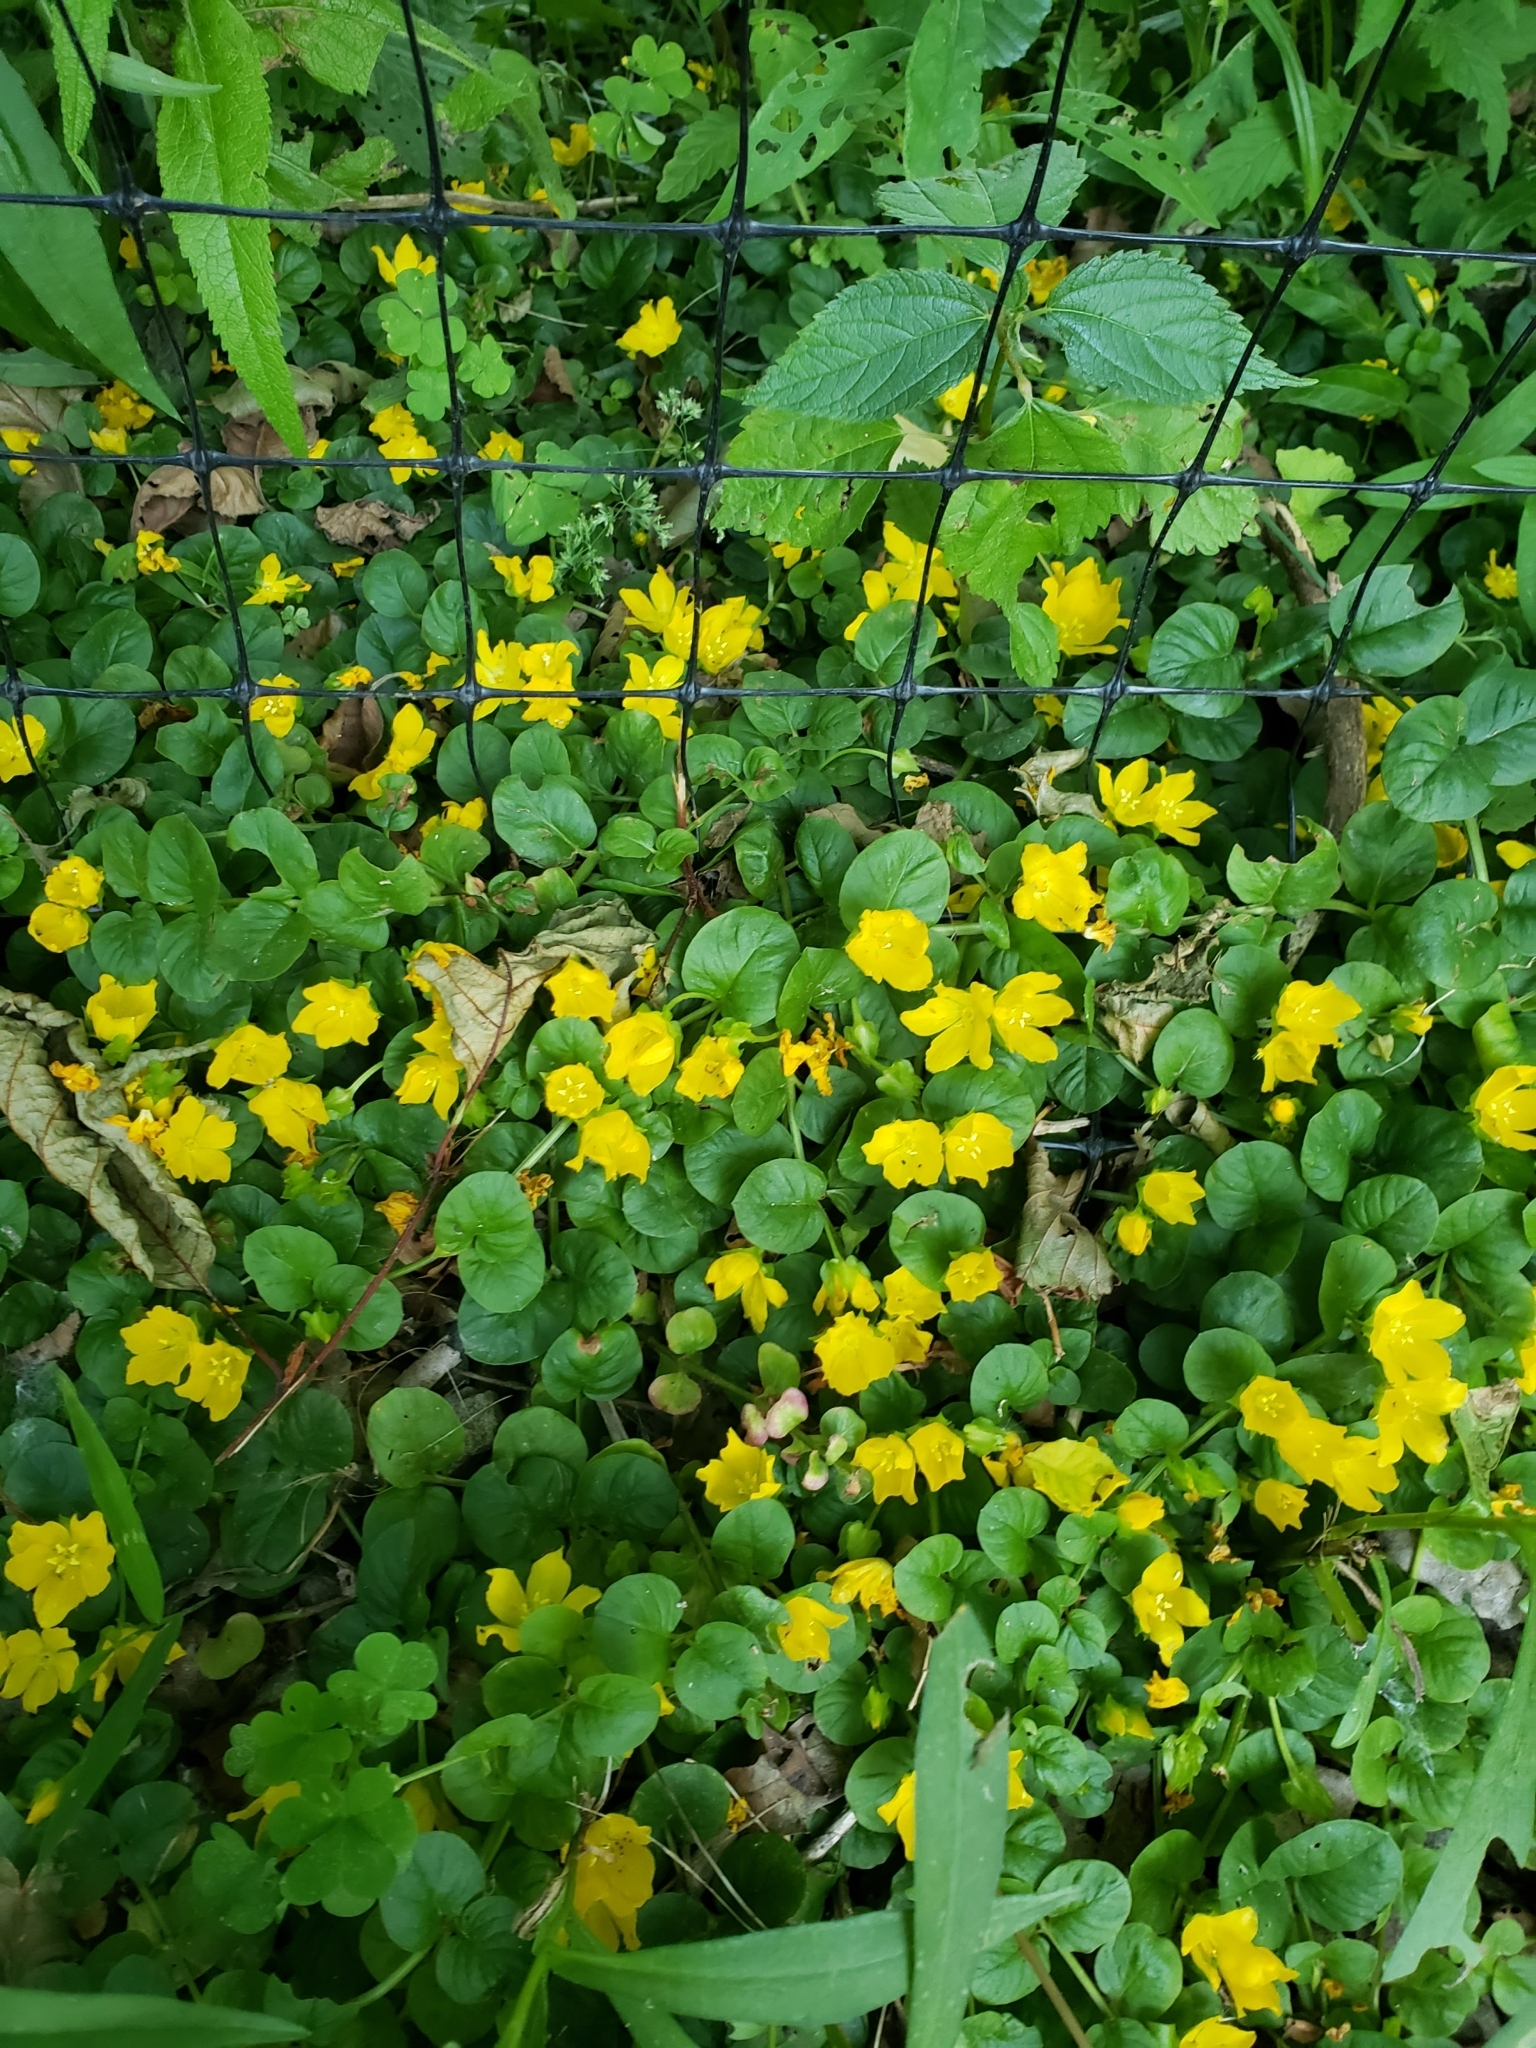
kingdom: Plantae
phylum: Tracheophyta
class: Magnoliopsida
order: Ericales
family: Primulaceae
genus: Lysimachia
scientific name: Lysimachia nummularia
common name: Moneywort
